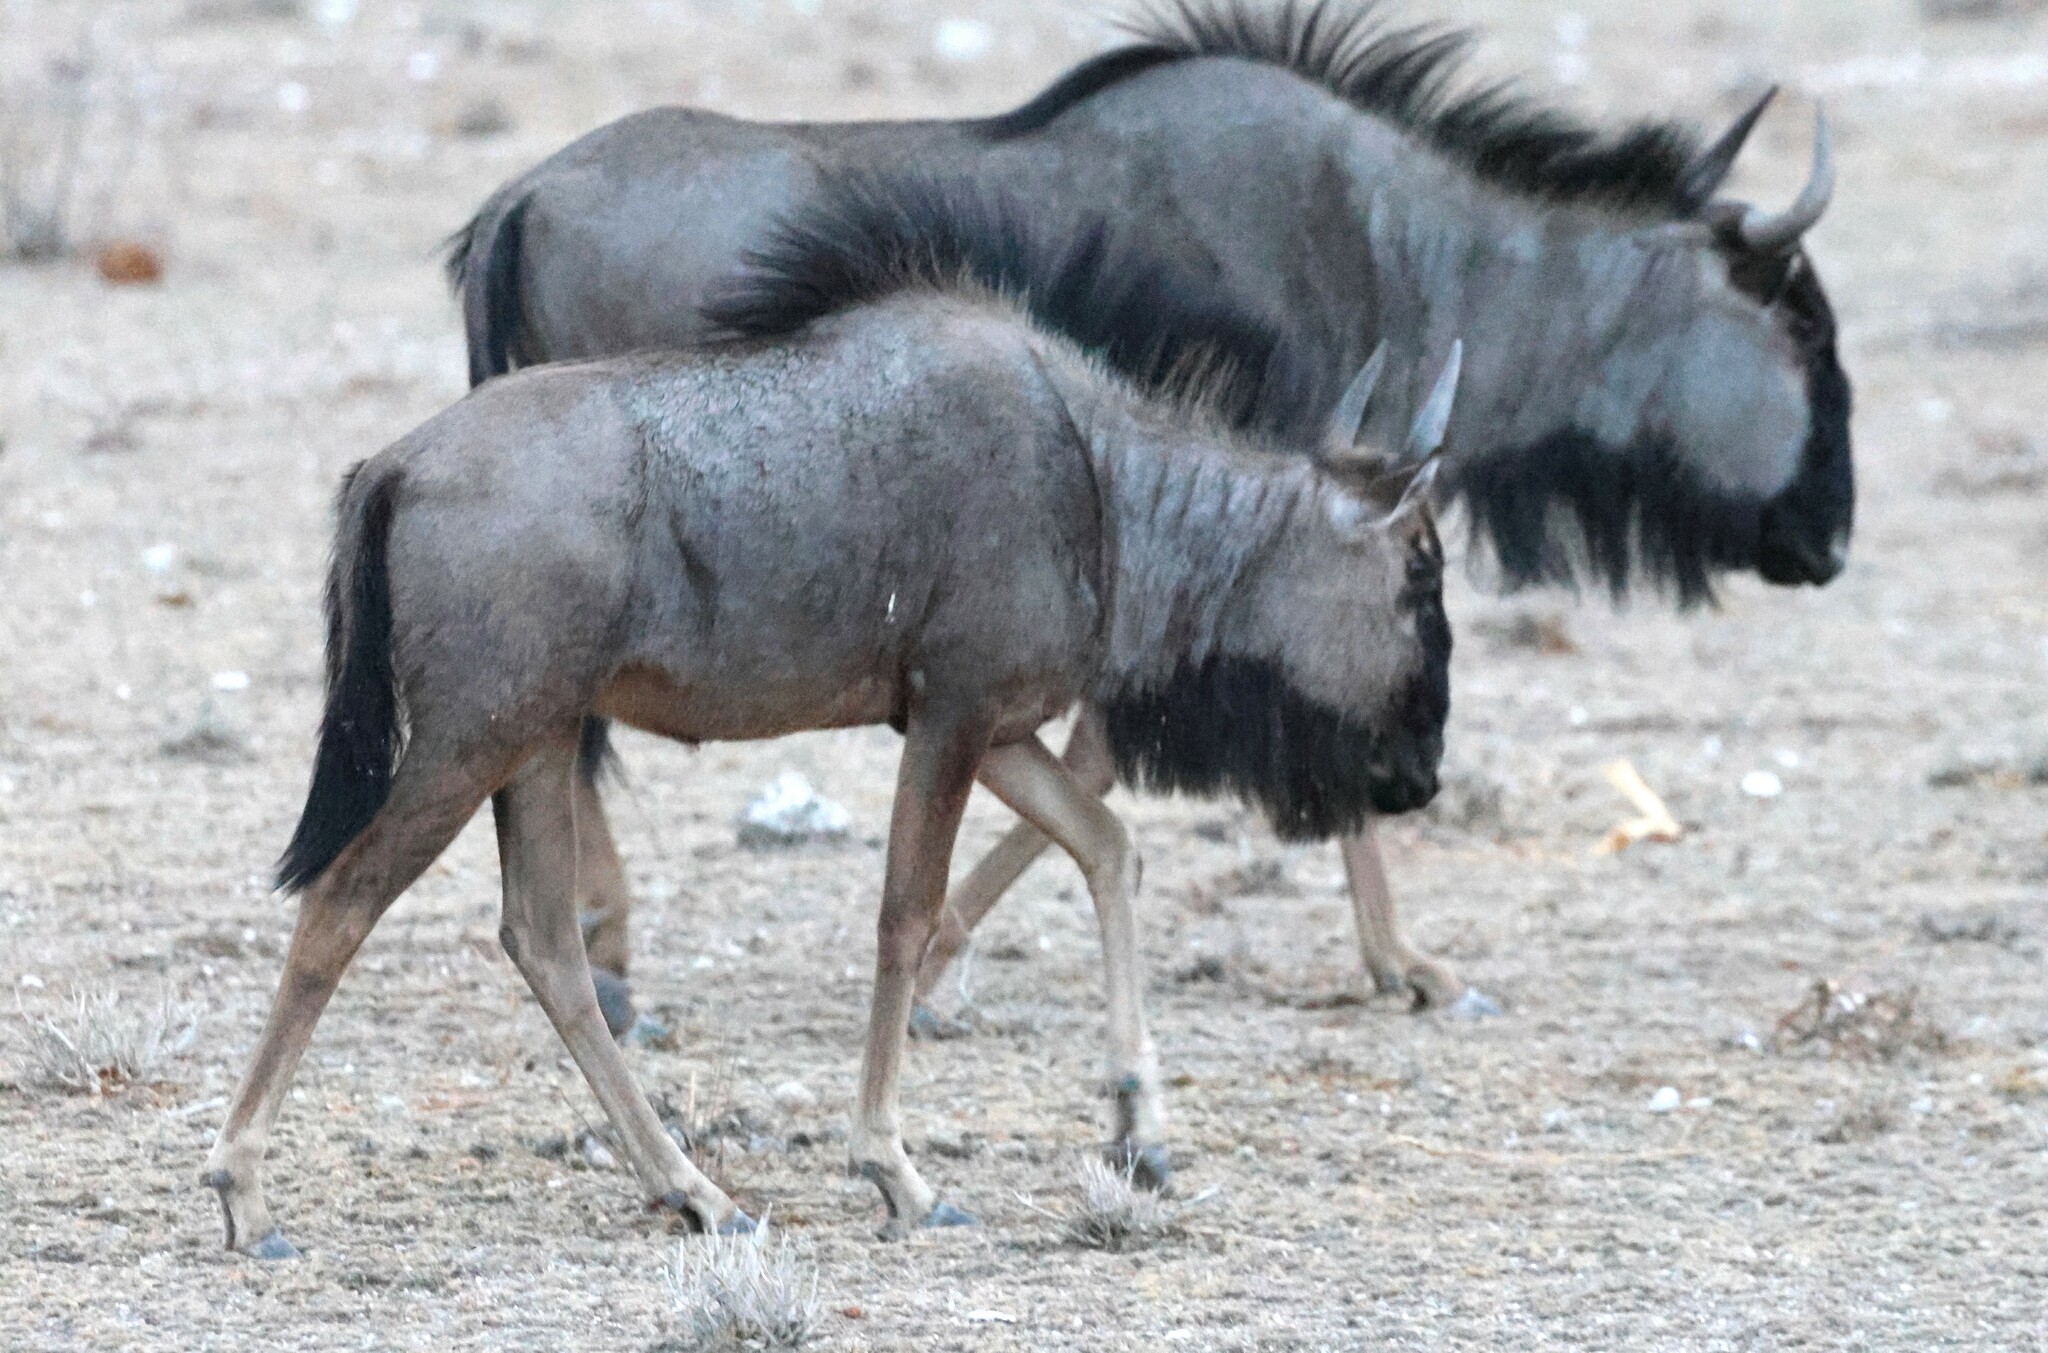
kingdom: Animalia
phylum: Chordata
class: Mammalia
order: Artiodactyla
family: Bovidae
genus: Connochaetes
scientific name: Connochaetes taurinus
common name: Blue wildebeest
